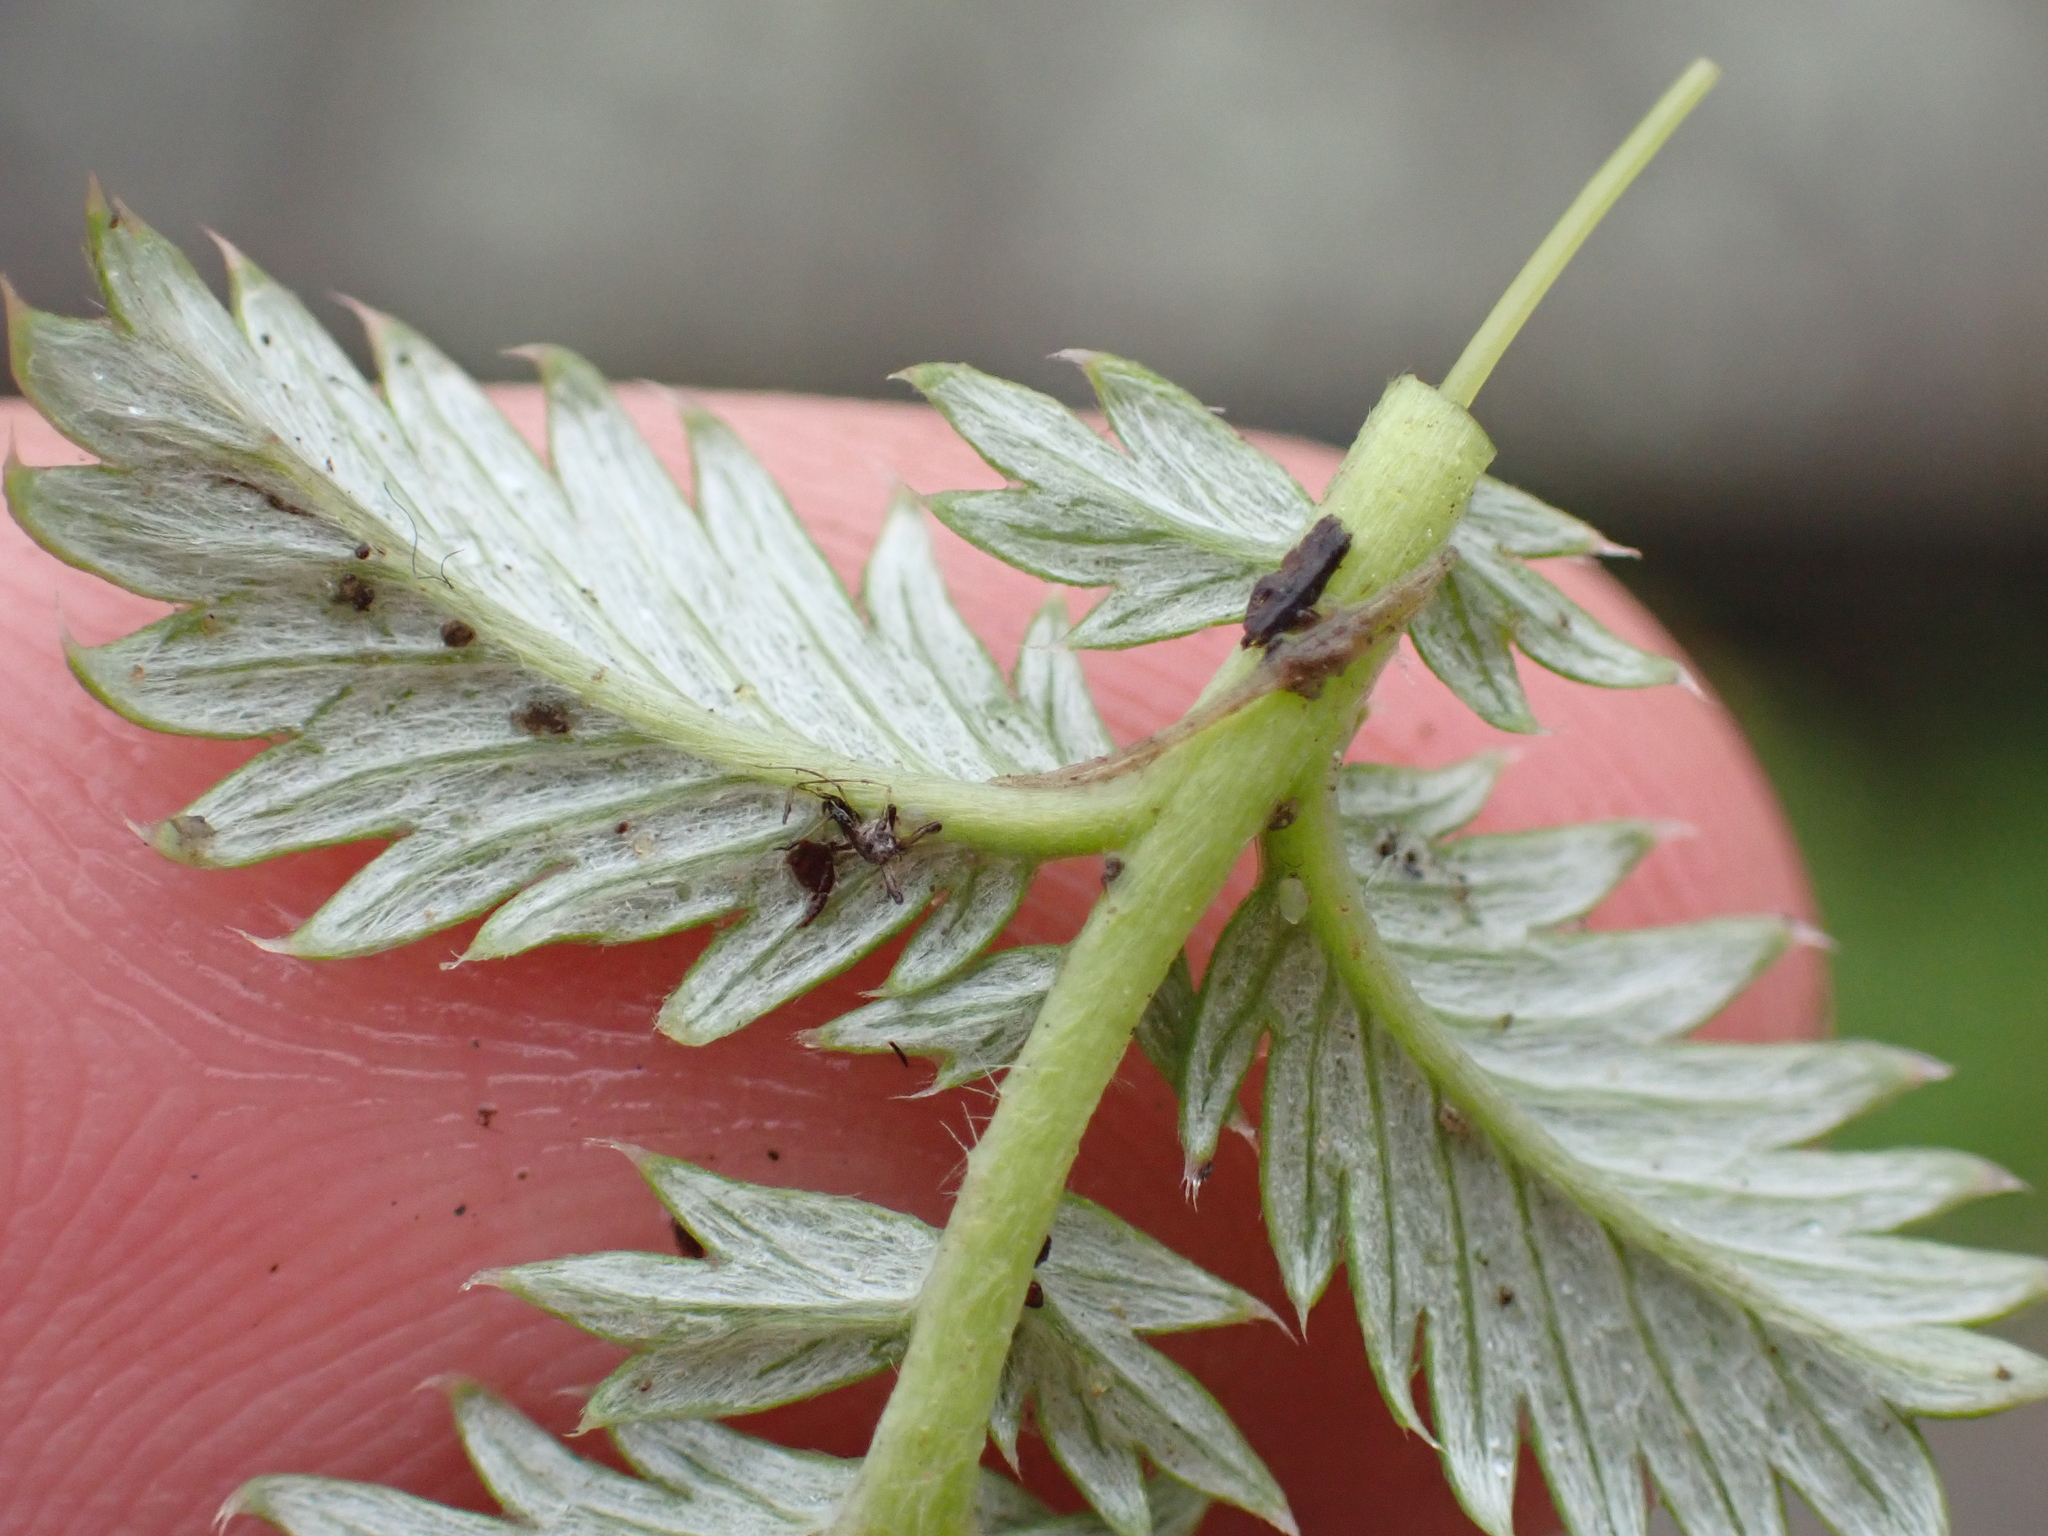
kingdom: Plantae
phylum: Tracheophyta
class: Magnoliopsida
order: Rosales
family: Rosaceae
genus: Argentina
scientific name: Argentina anserina
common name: Common silverweed
